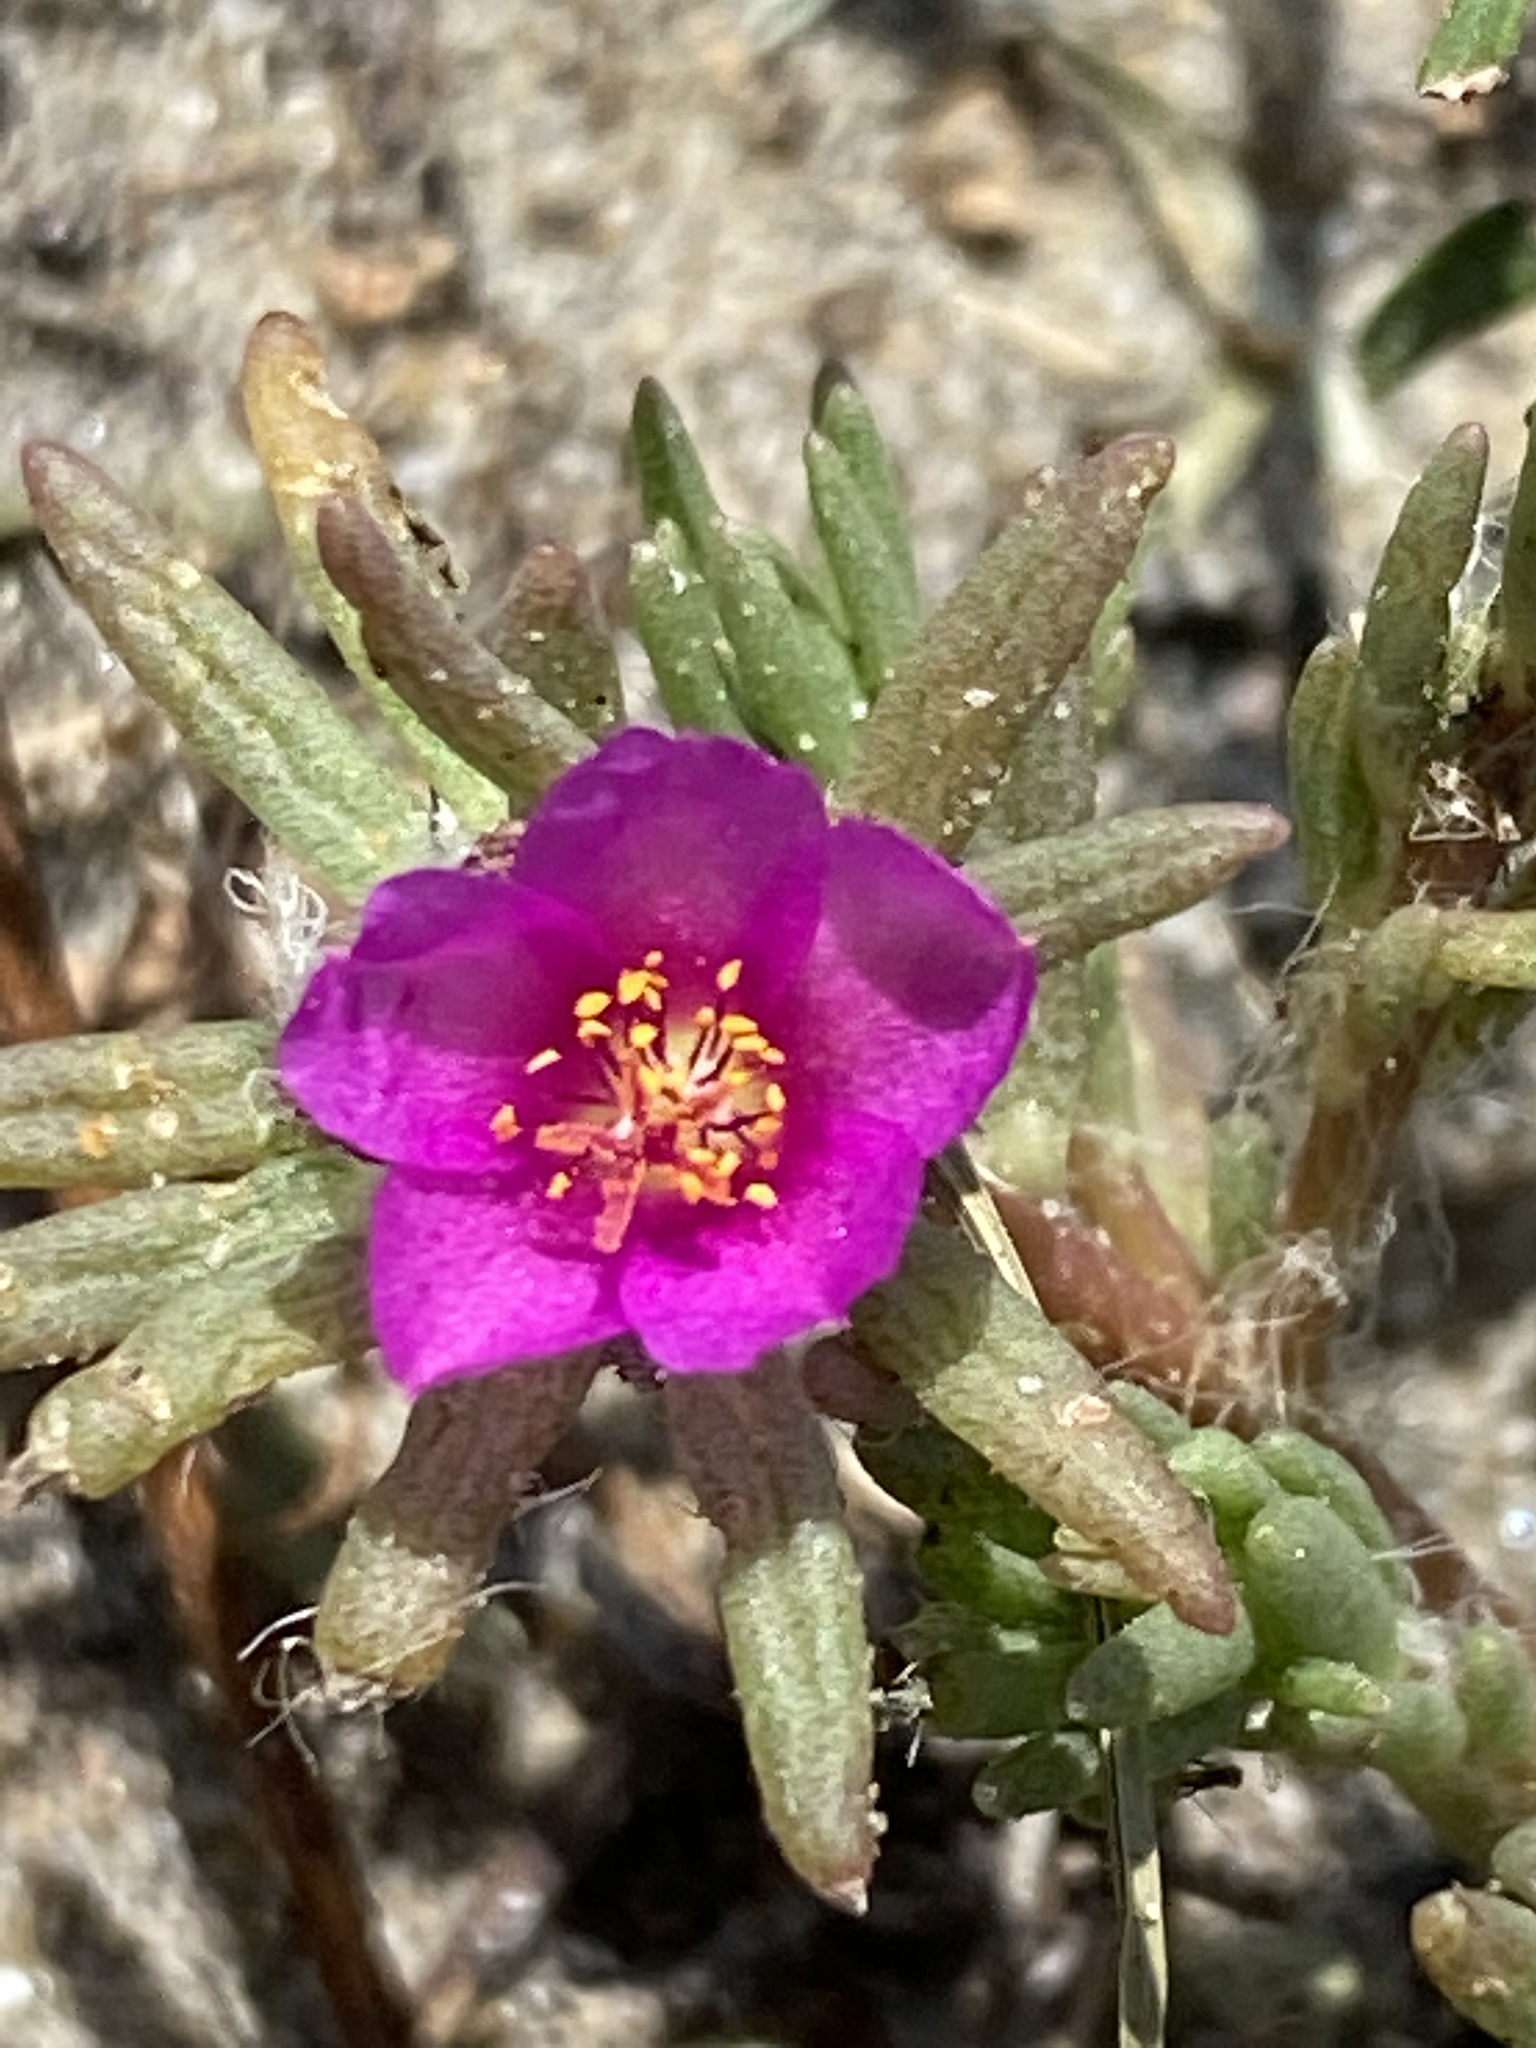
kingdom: Plantae
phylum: Tracheophyta
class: Magnoliopsida
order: Caryophyllales
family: Portulacaceae
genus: Portulaca
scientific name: Portulaca pilosa
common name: Kiss me quick
